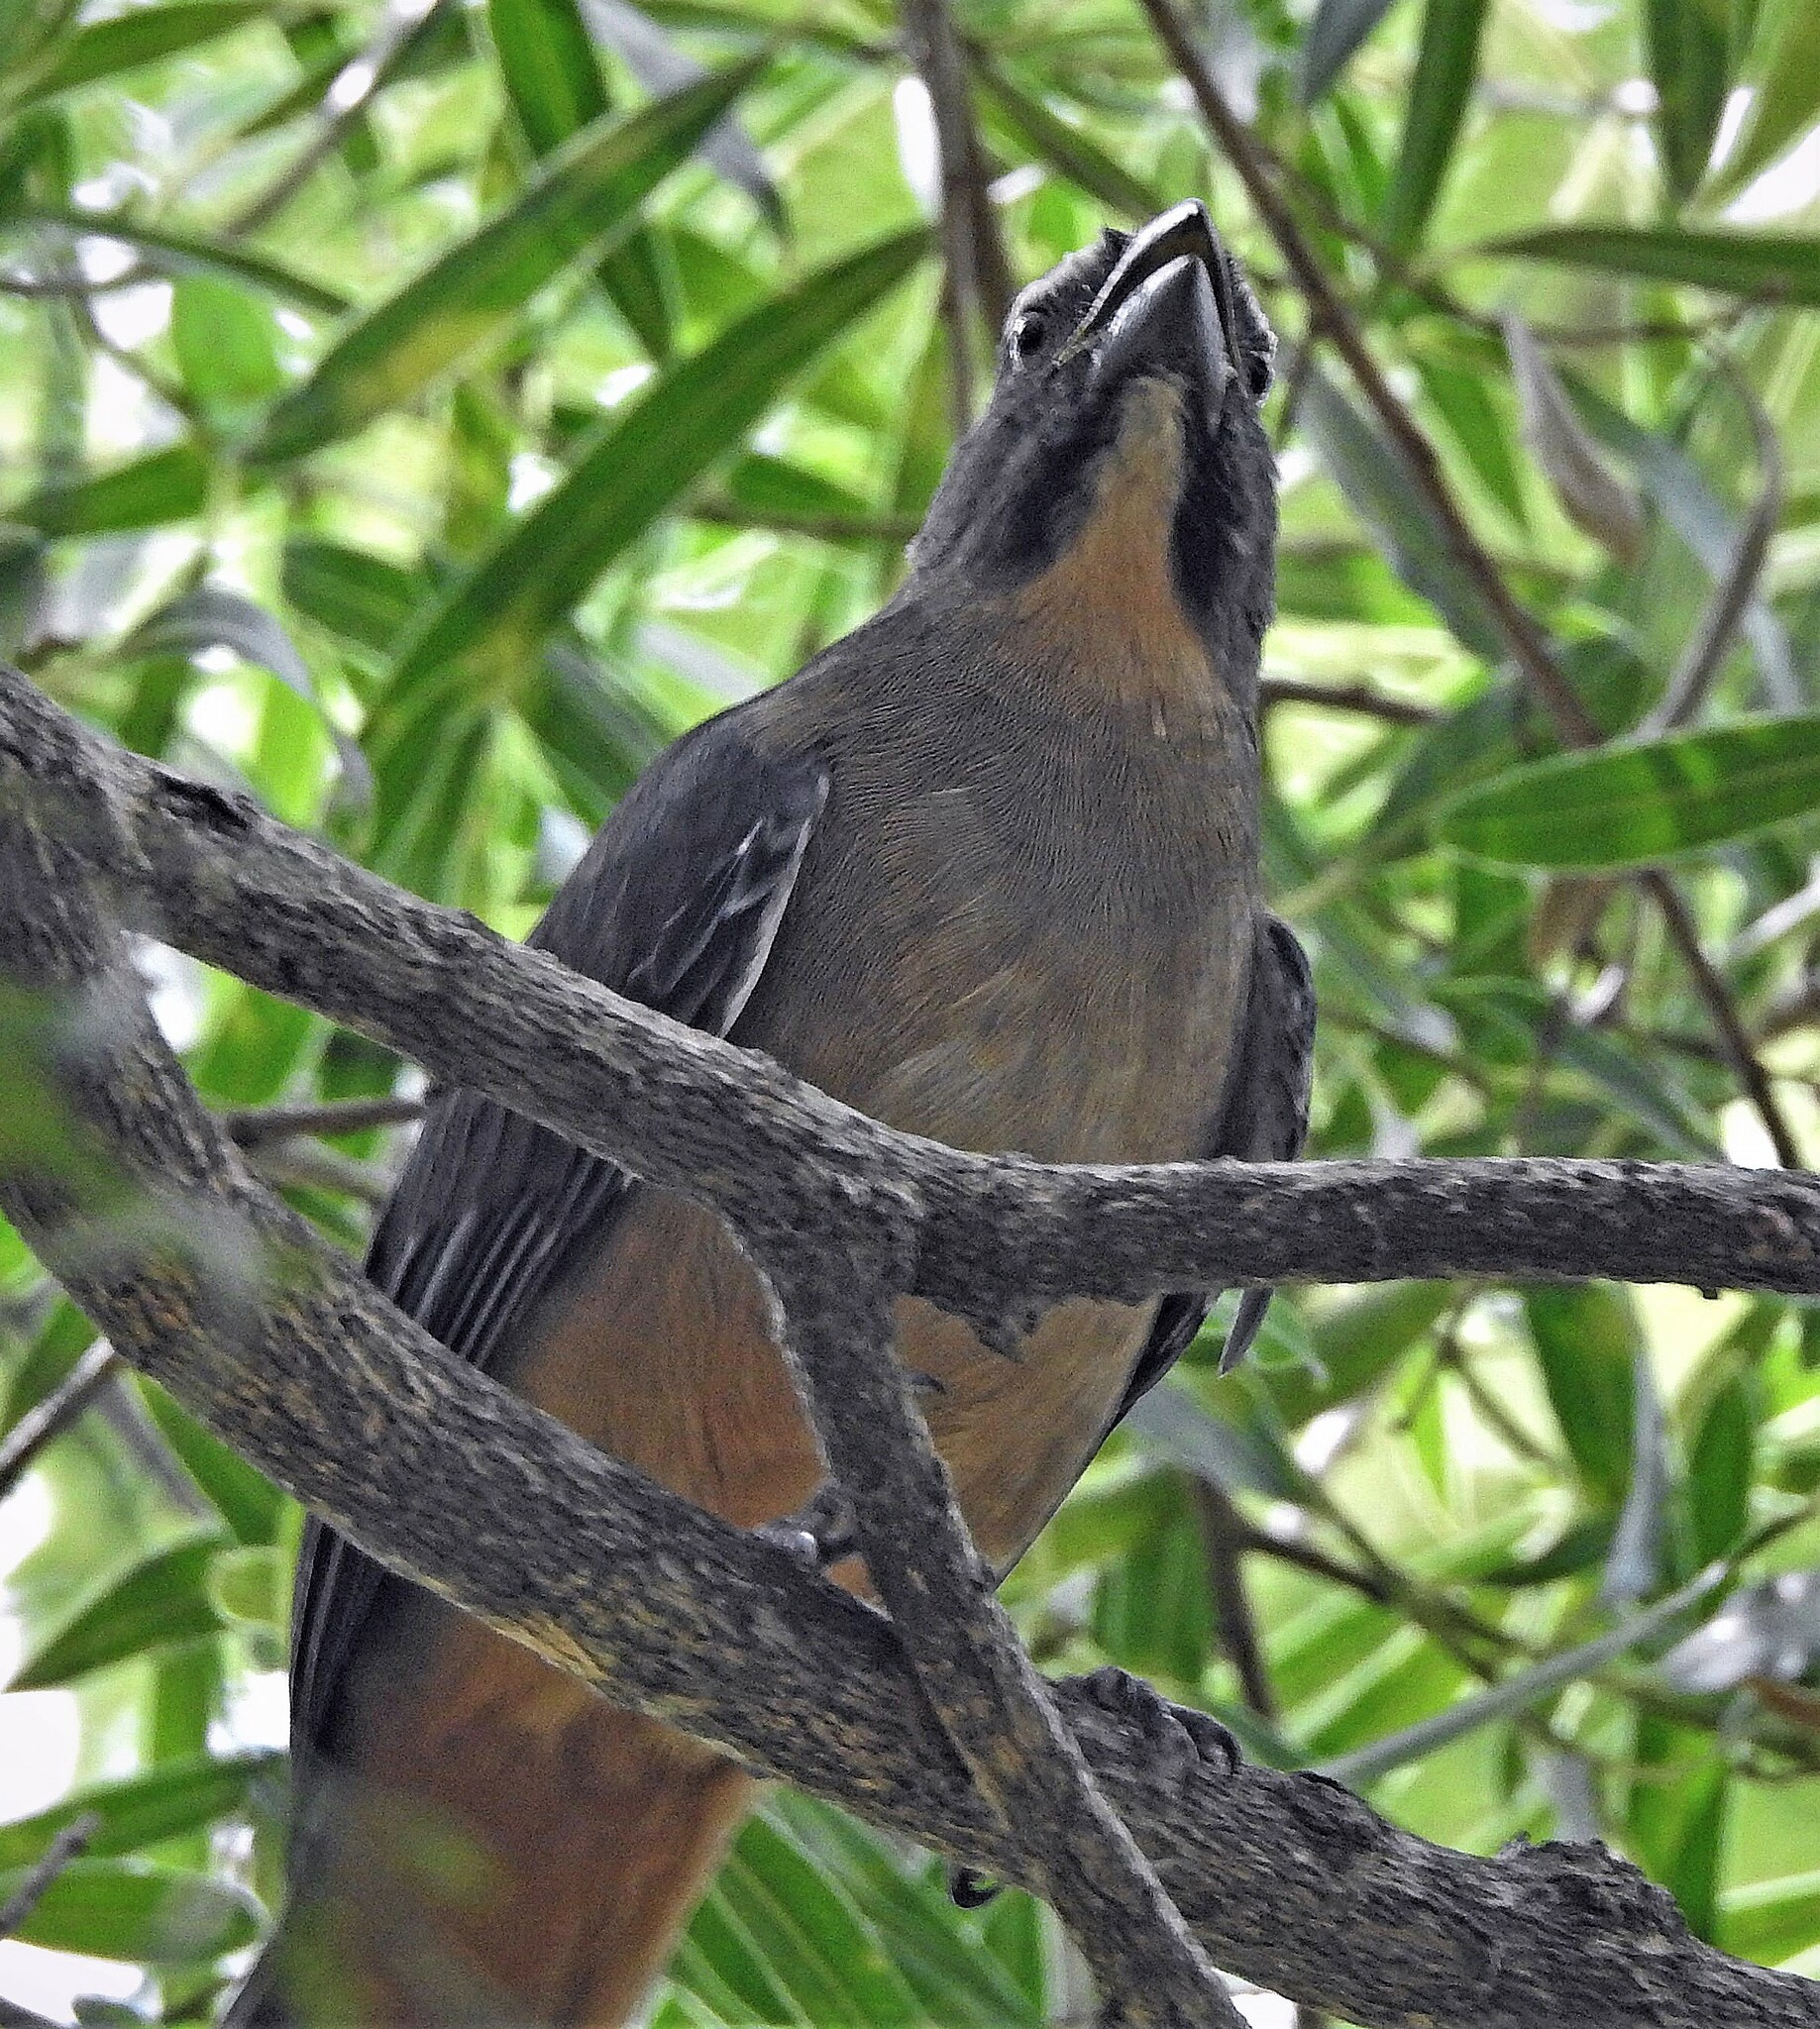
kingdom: Animalia
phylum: Chordata
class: Aves
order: Passeriformes
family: Thraupidae
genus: Saltator
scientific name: Saltator coerulescens
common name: Grayish saltator
